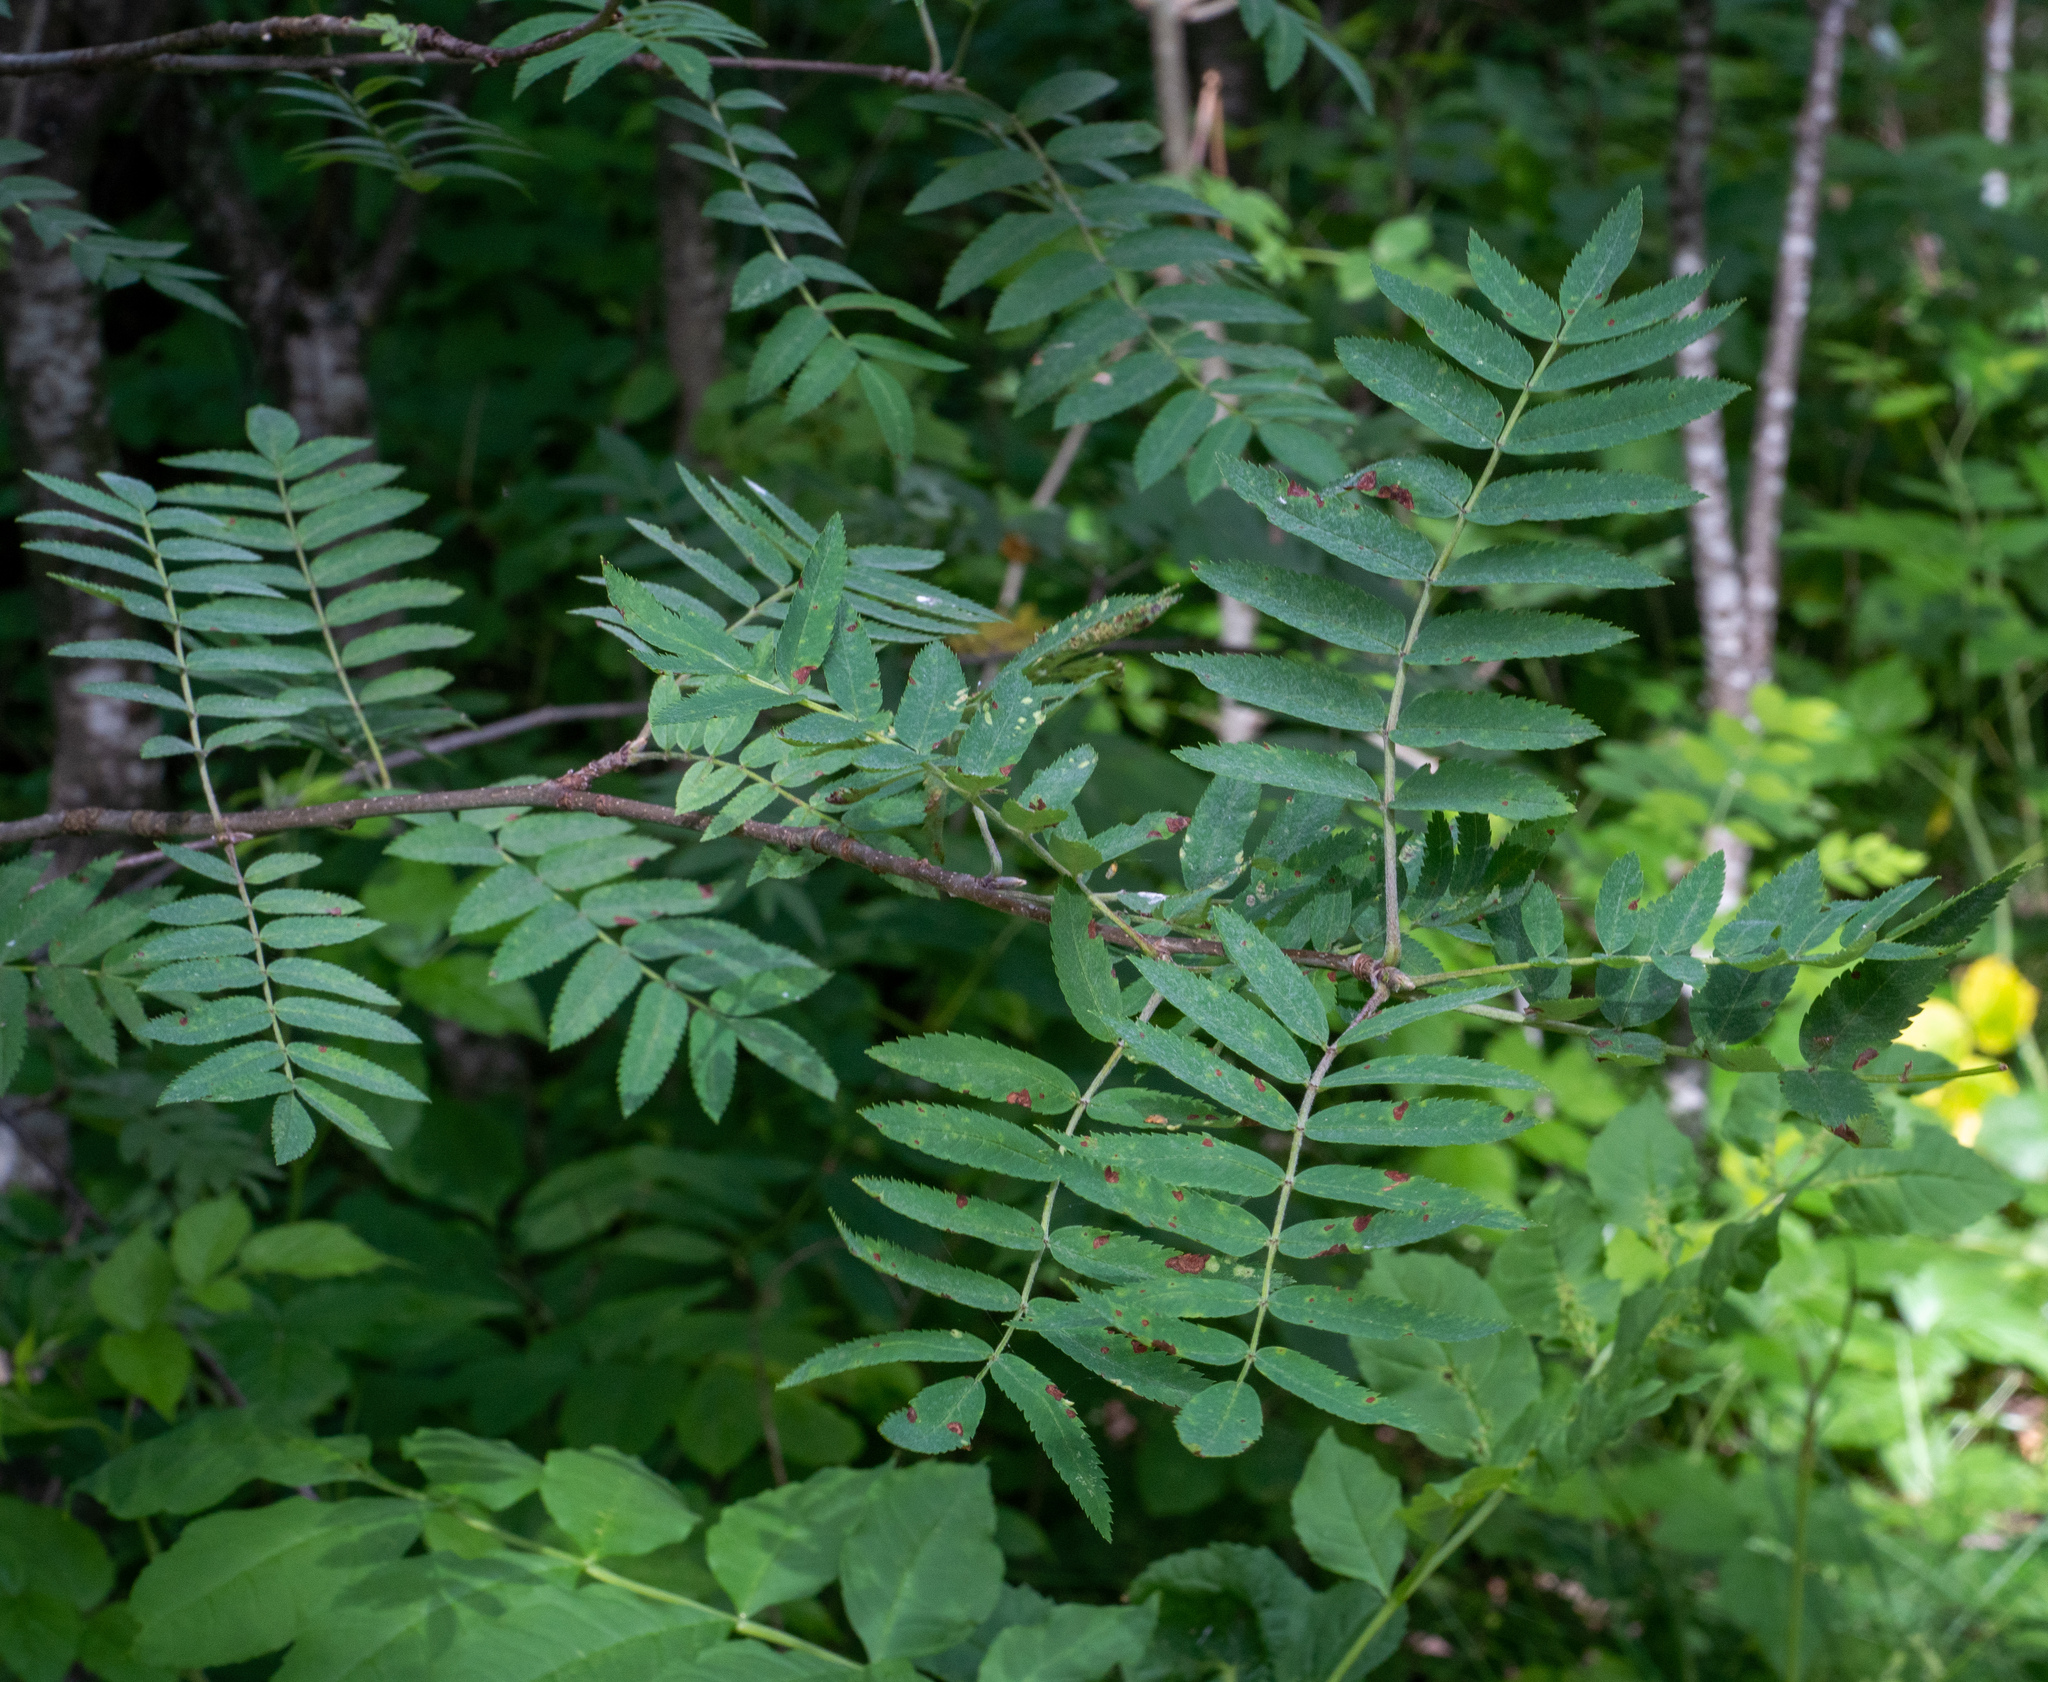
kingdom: Plantae
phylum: Tracheophyta
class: Magnoliopsida
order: Rosales
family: Rosaceae
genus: Sorbus
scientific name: Sorbus aucuparia
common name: Rowan
